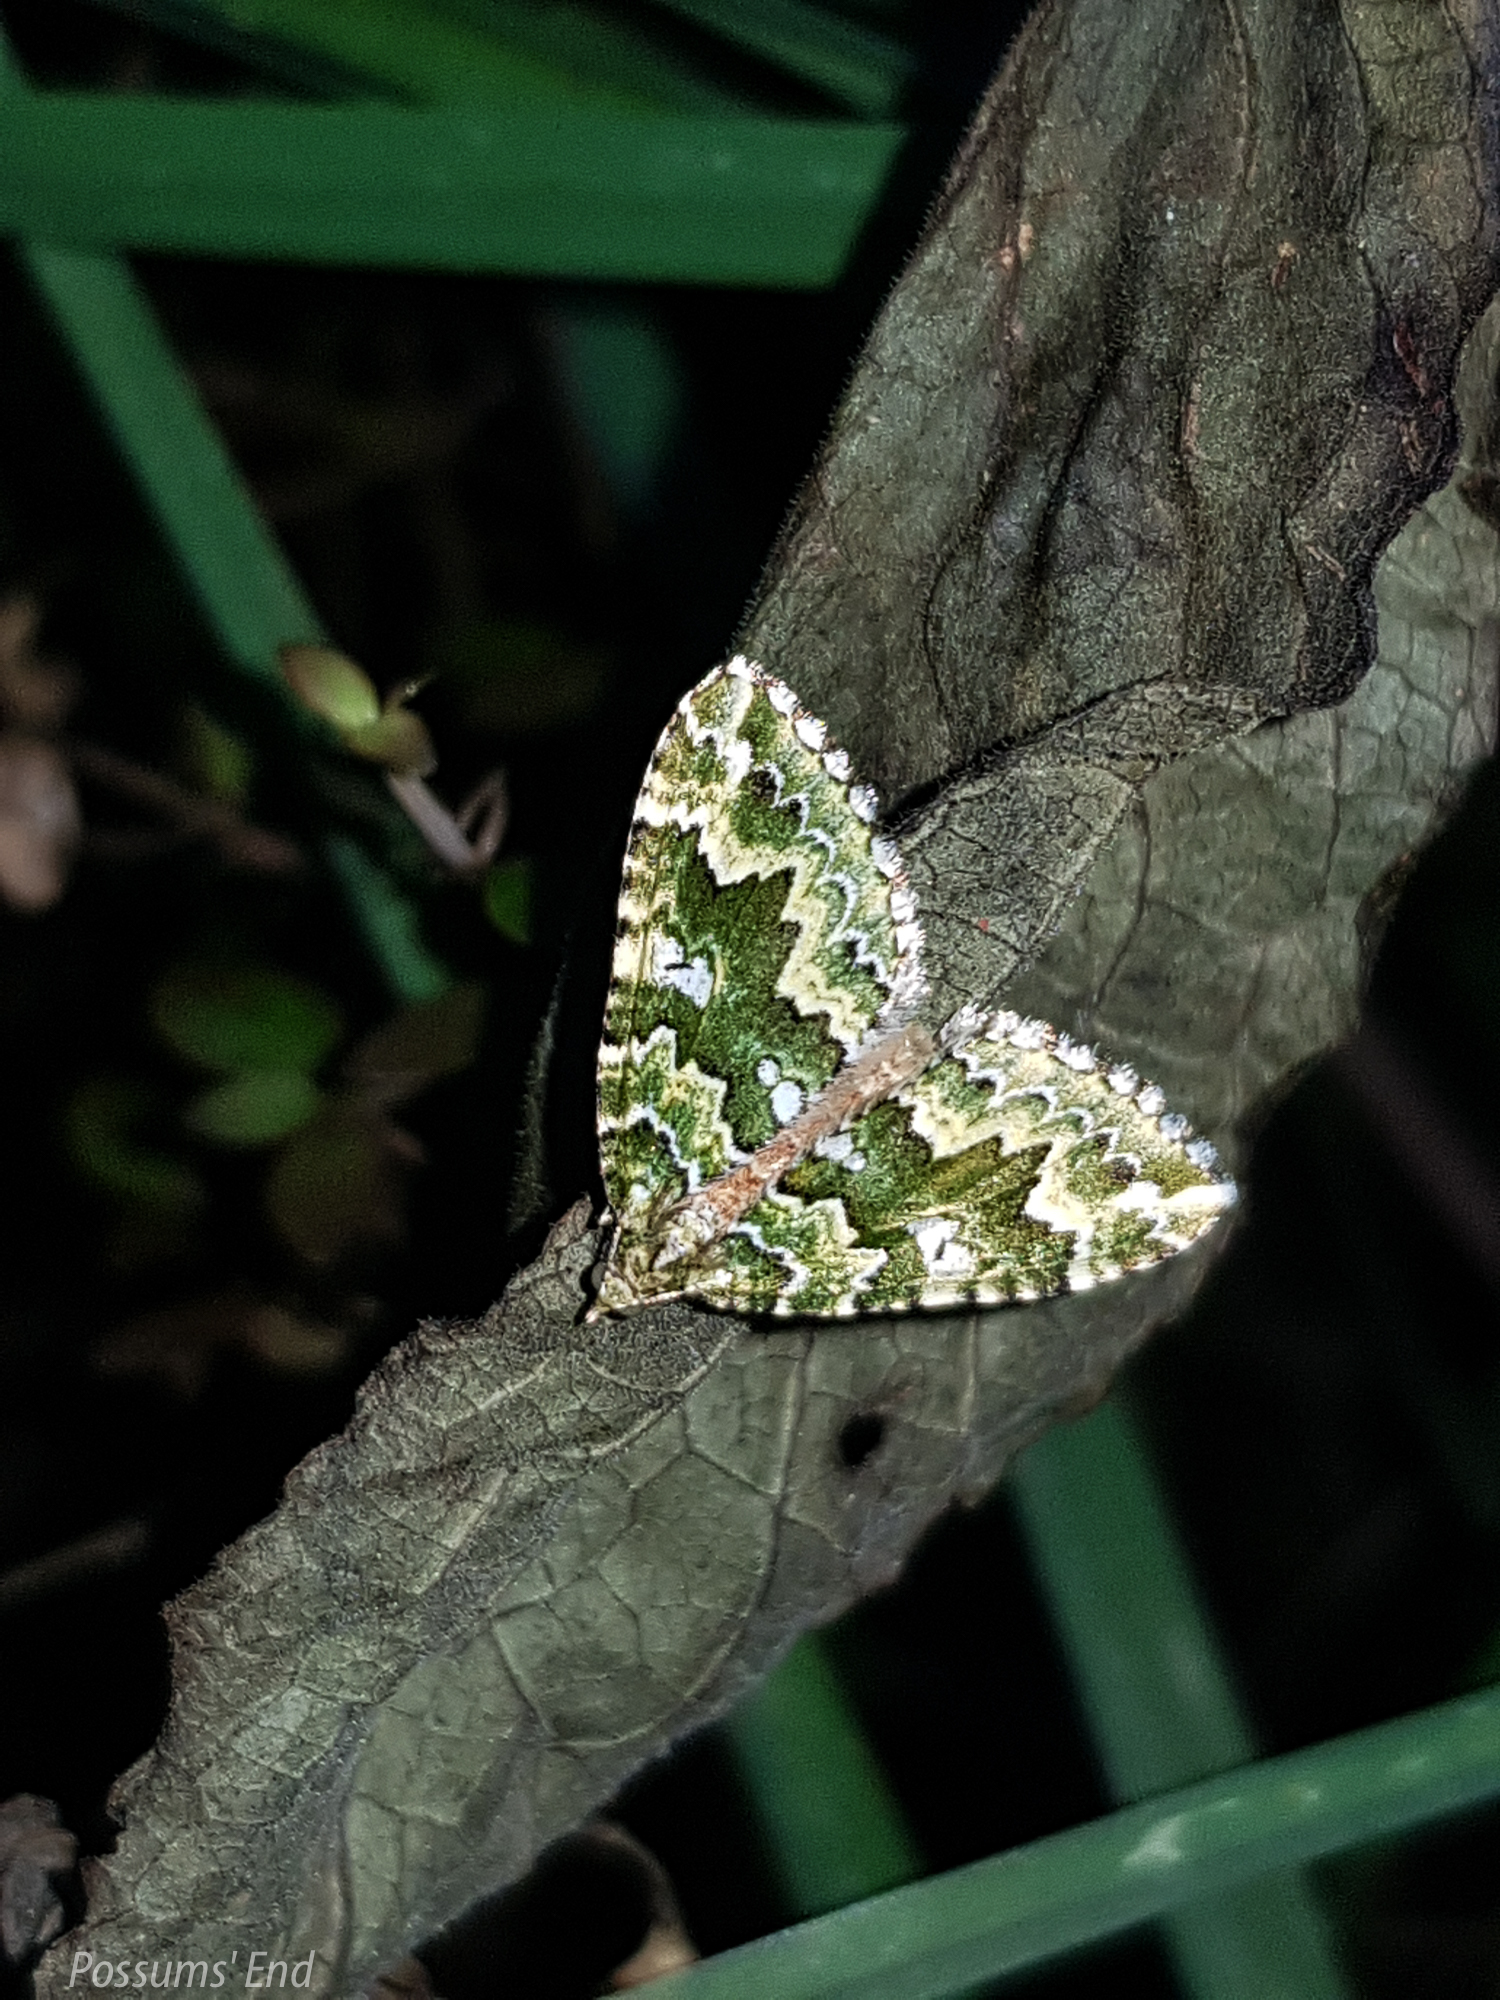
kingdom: Animalia
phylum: Arthropoda
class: Insecta
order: Lepidoptera
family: Geometridae
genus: Asaphodes
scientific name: Asaphodes beata
